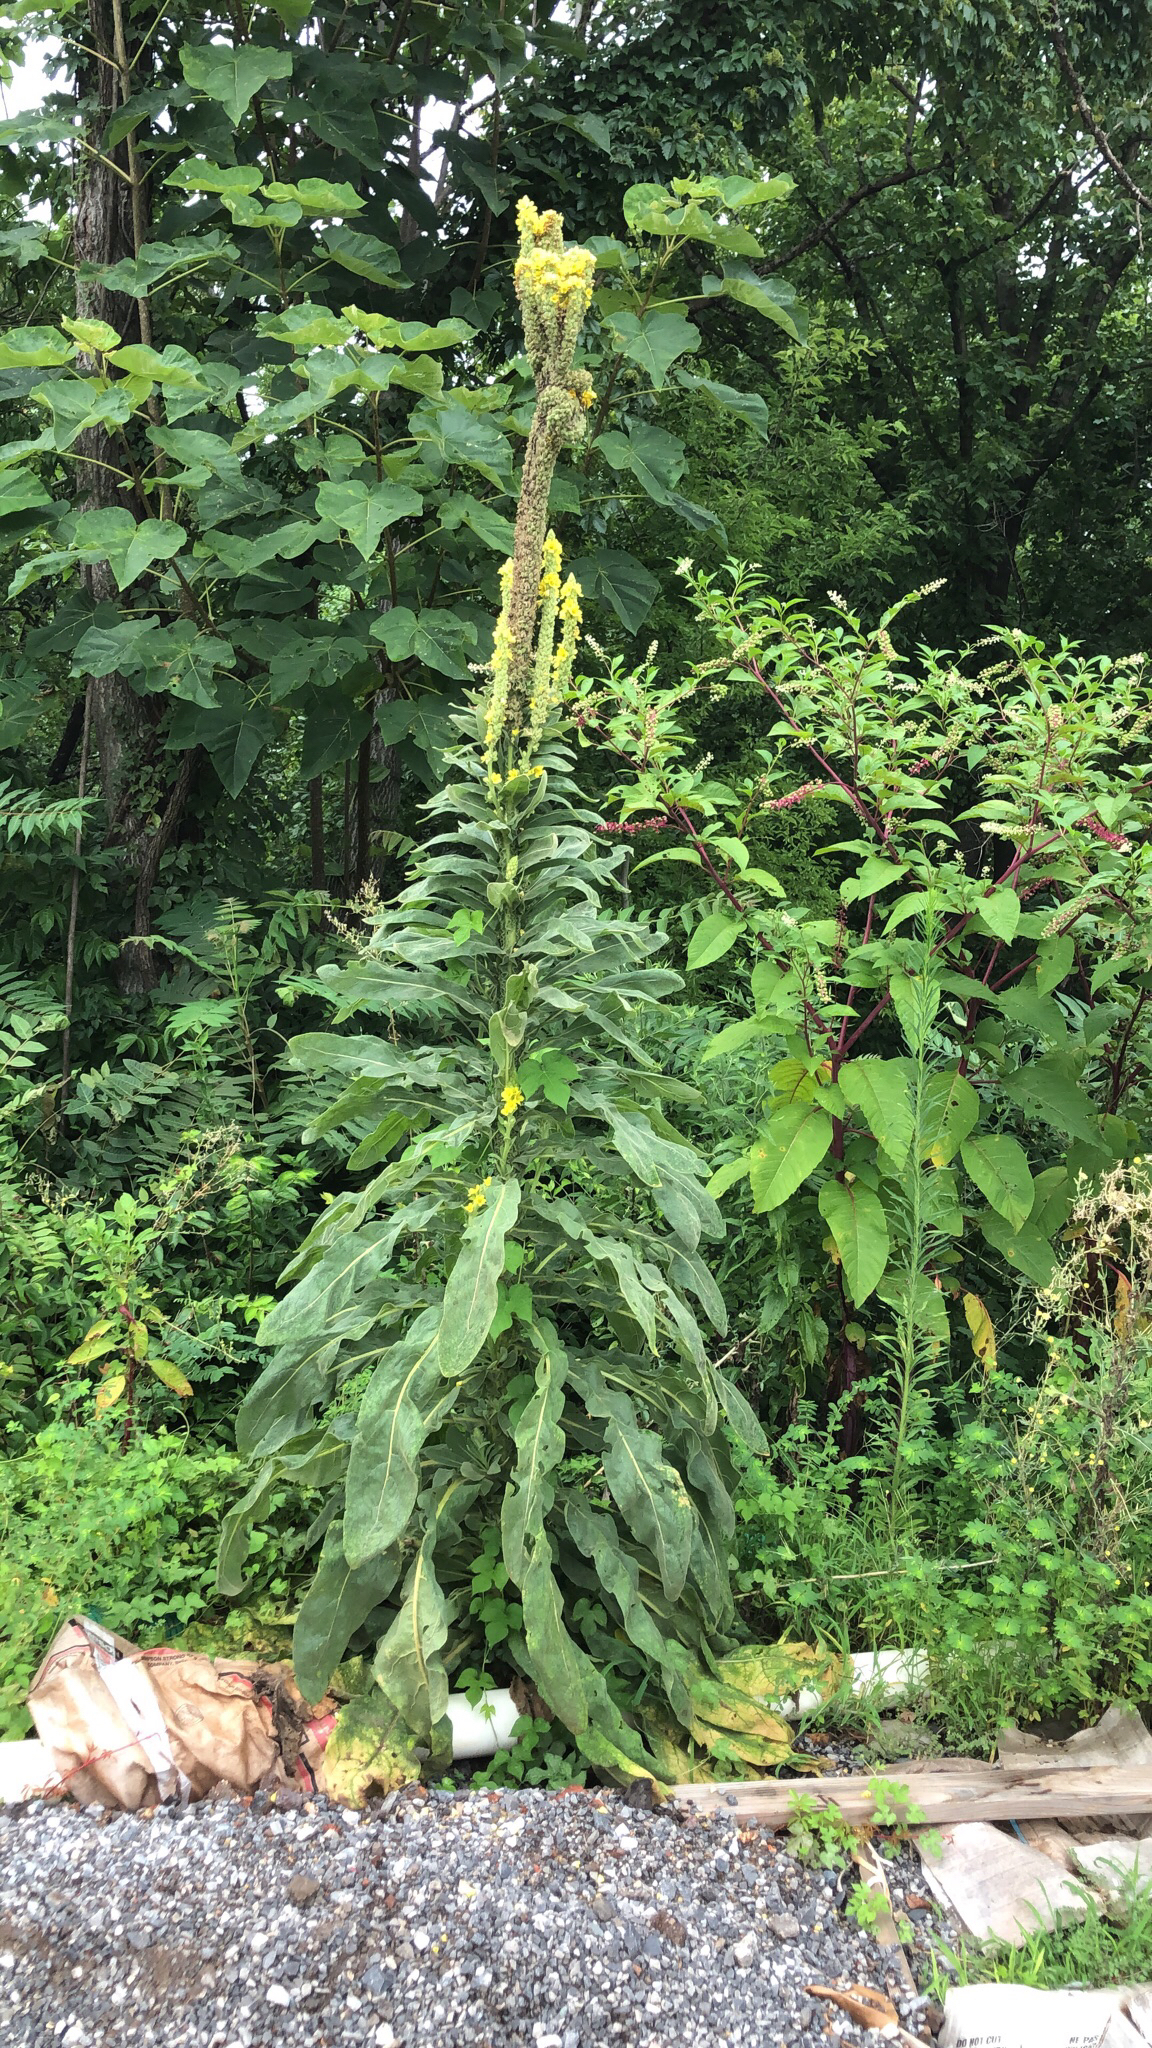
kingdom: Plantae
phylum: Tracheophyta
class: Magnoliopsida
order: Lamiales
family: Scrophulariaceae
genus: Verbascum
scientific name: Verbascum thapsus
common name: Common mullein
